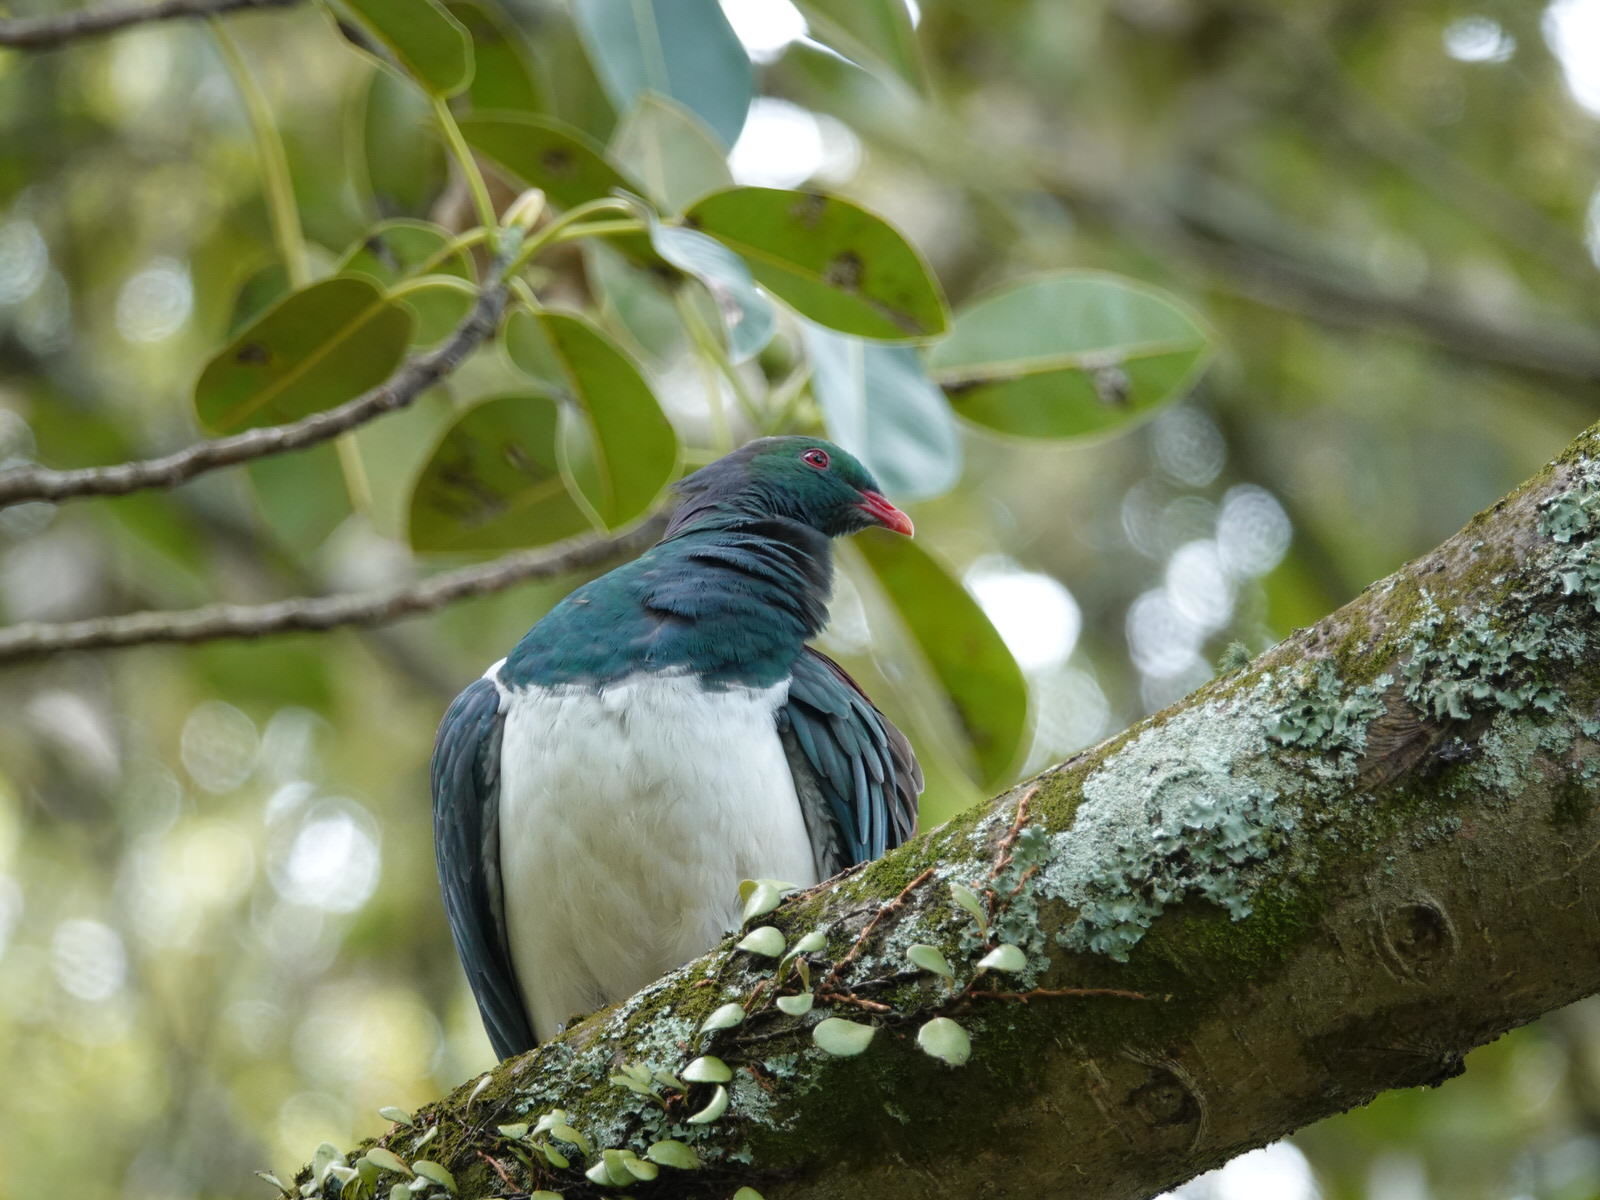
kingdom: Animalia
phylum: Chordata
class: Aves
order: Columbiformes
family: Columbidae
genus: Hemiphaga
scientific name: Hemiphaga novaeseelandiae
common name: New zealand pigeon
